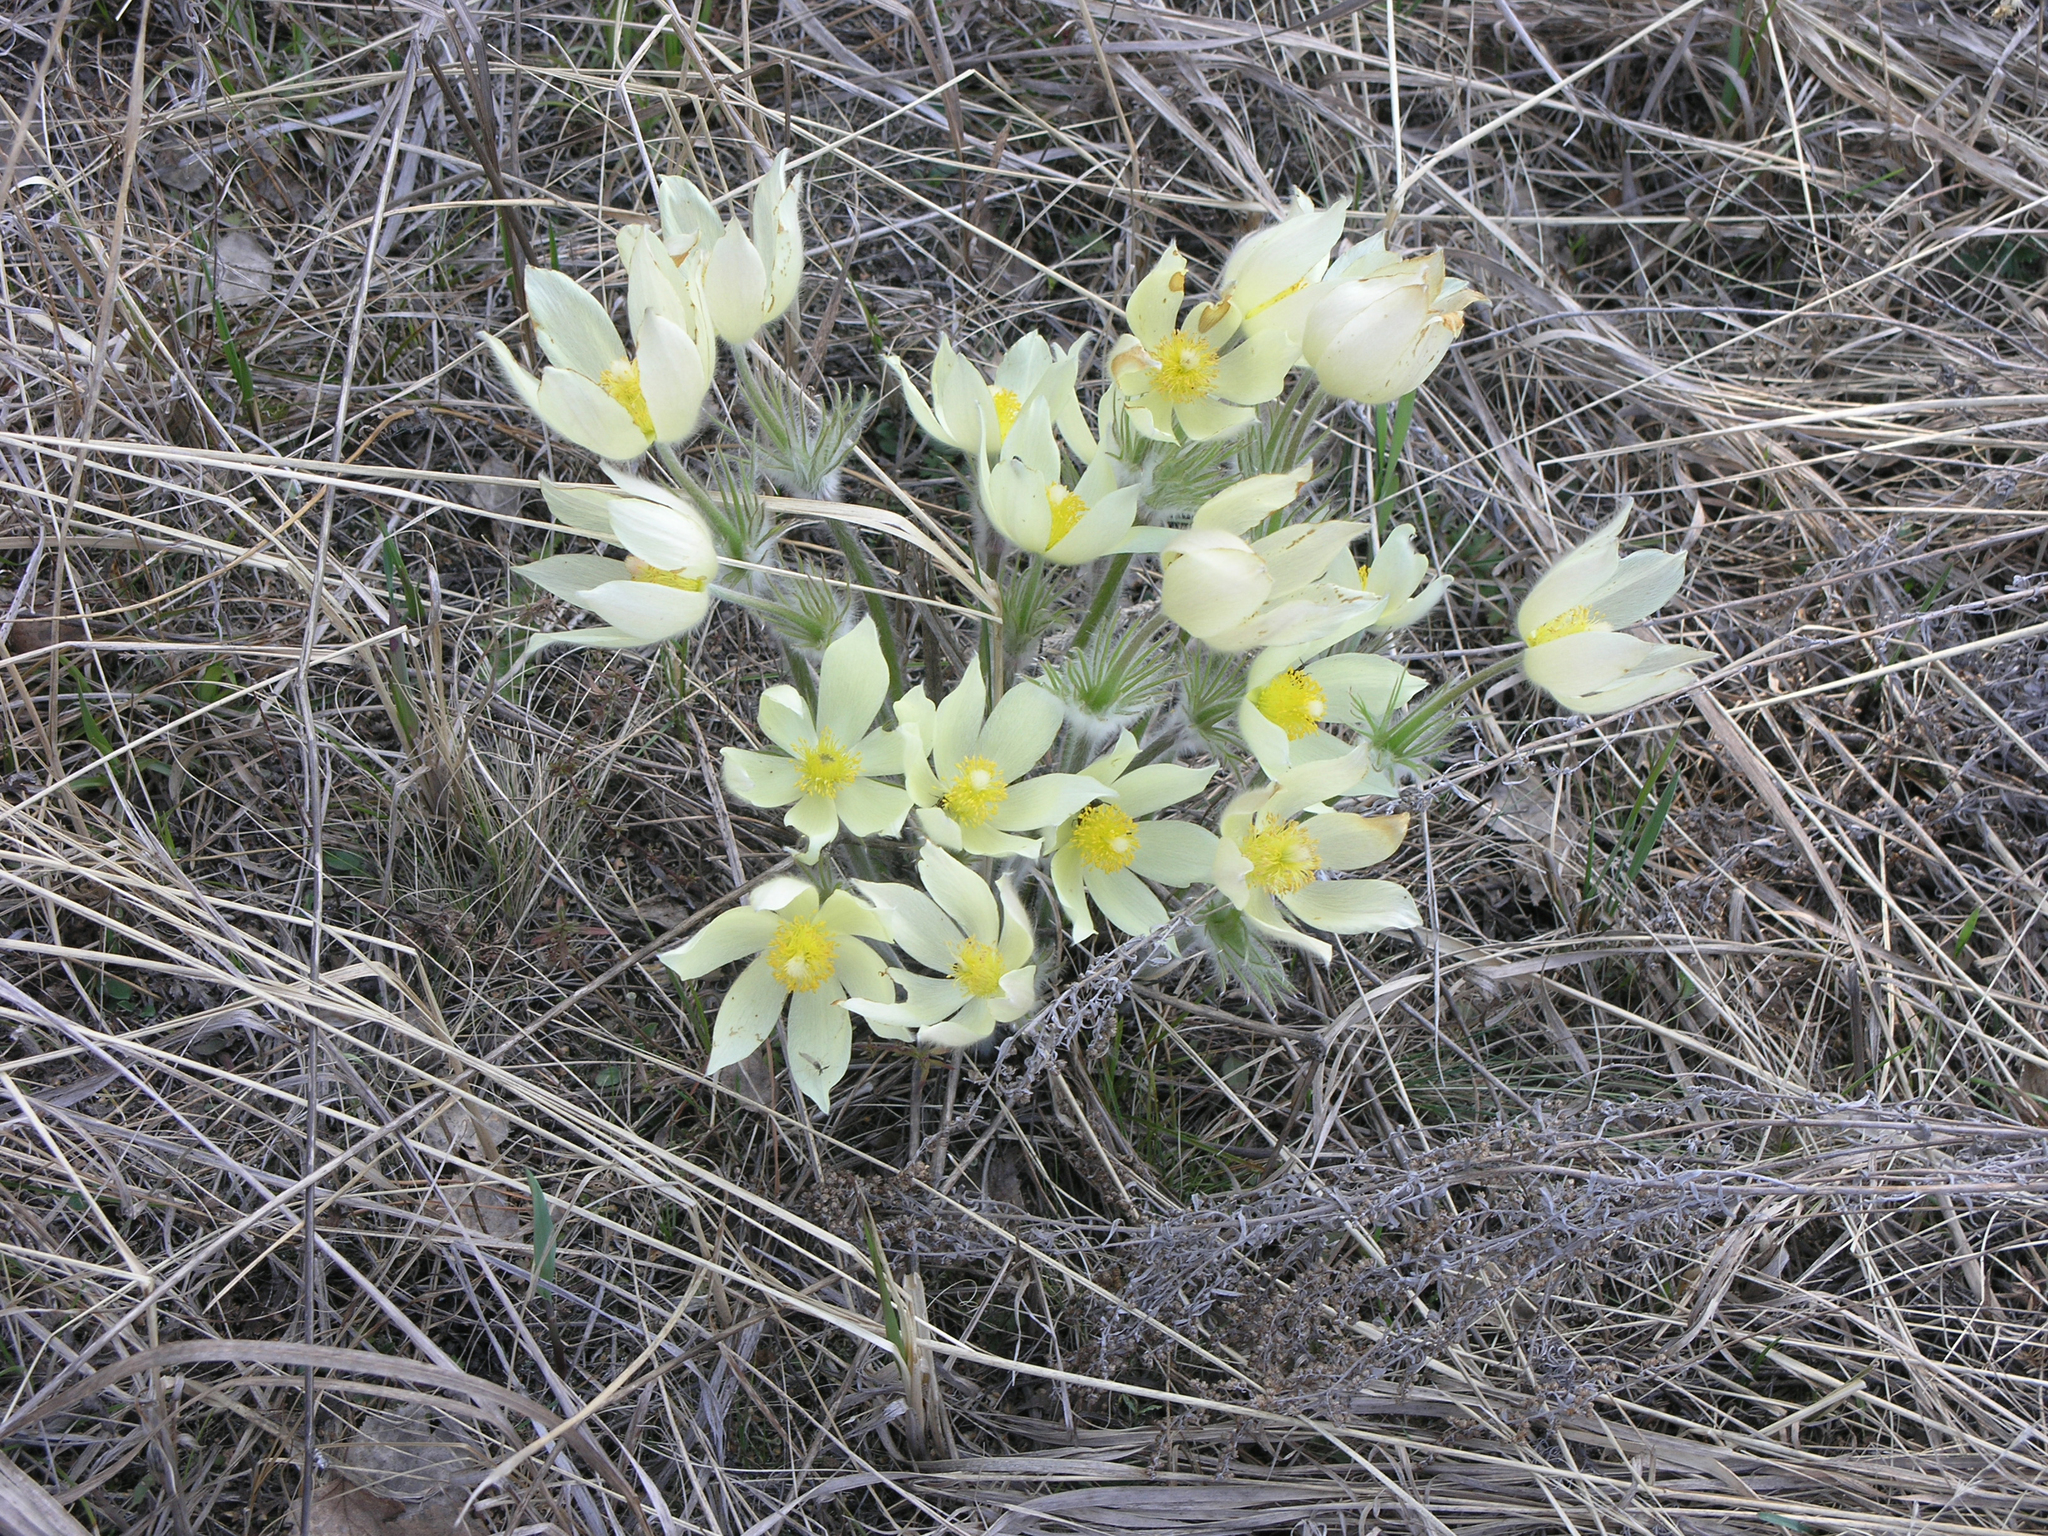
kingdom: Plantae
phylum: Tracheophyta
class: Magnoliopsida
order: Ranunculales
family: Ranunculaceae
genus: Pulsatilla
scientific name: Pulsatilla patens
